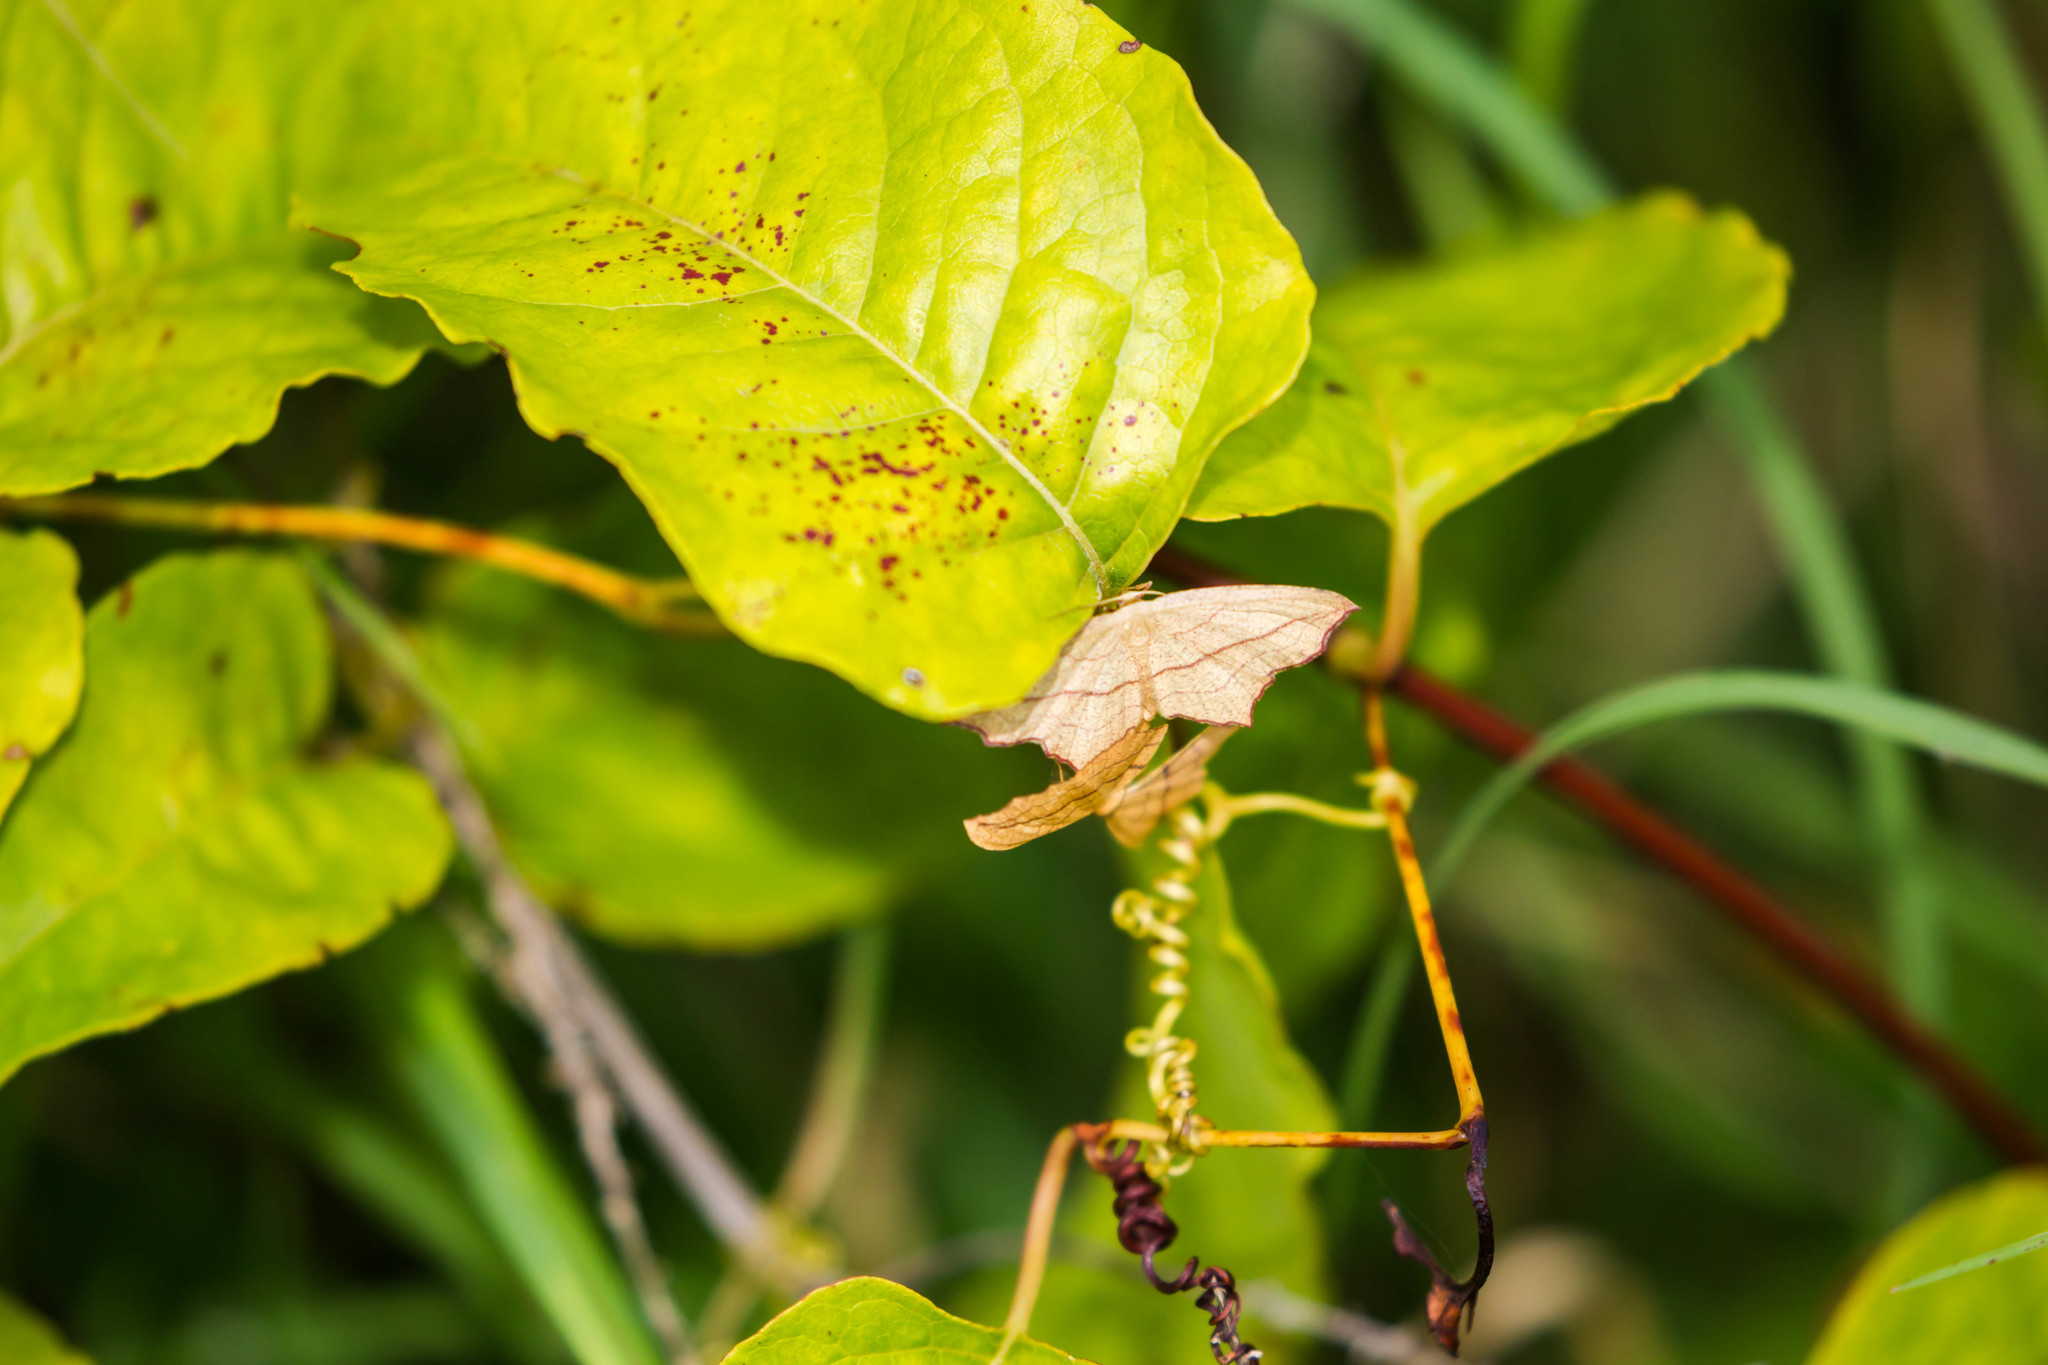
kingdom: Animalia
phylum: Arthropoda
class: Insecta
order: Lepidoptera
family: Geometridae
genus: Timandra
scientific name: Timandra amaturaria
